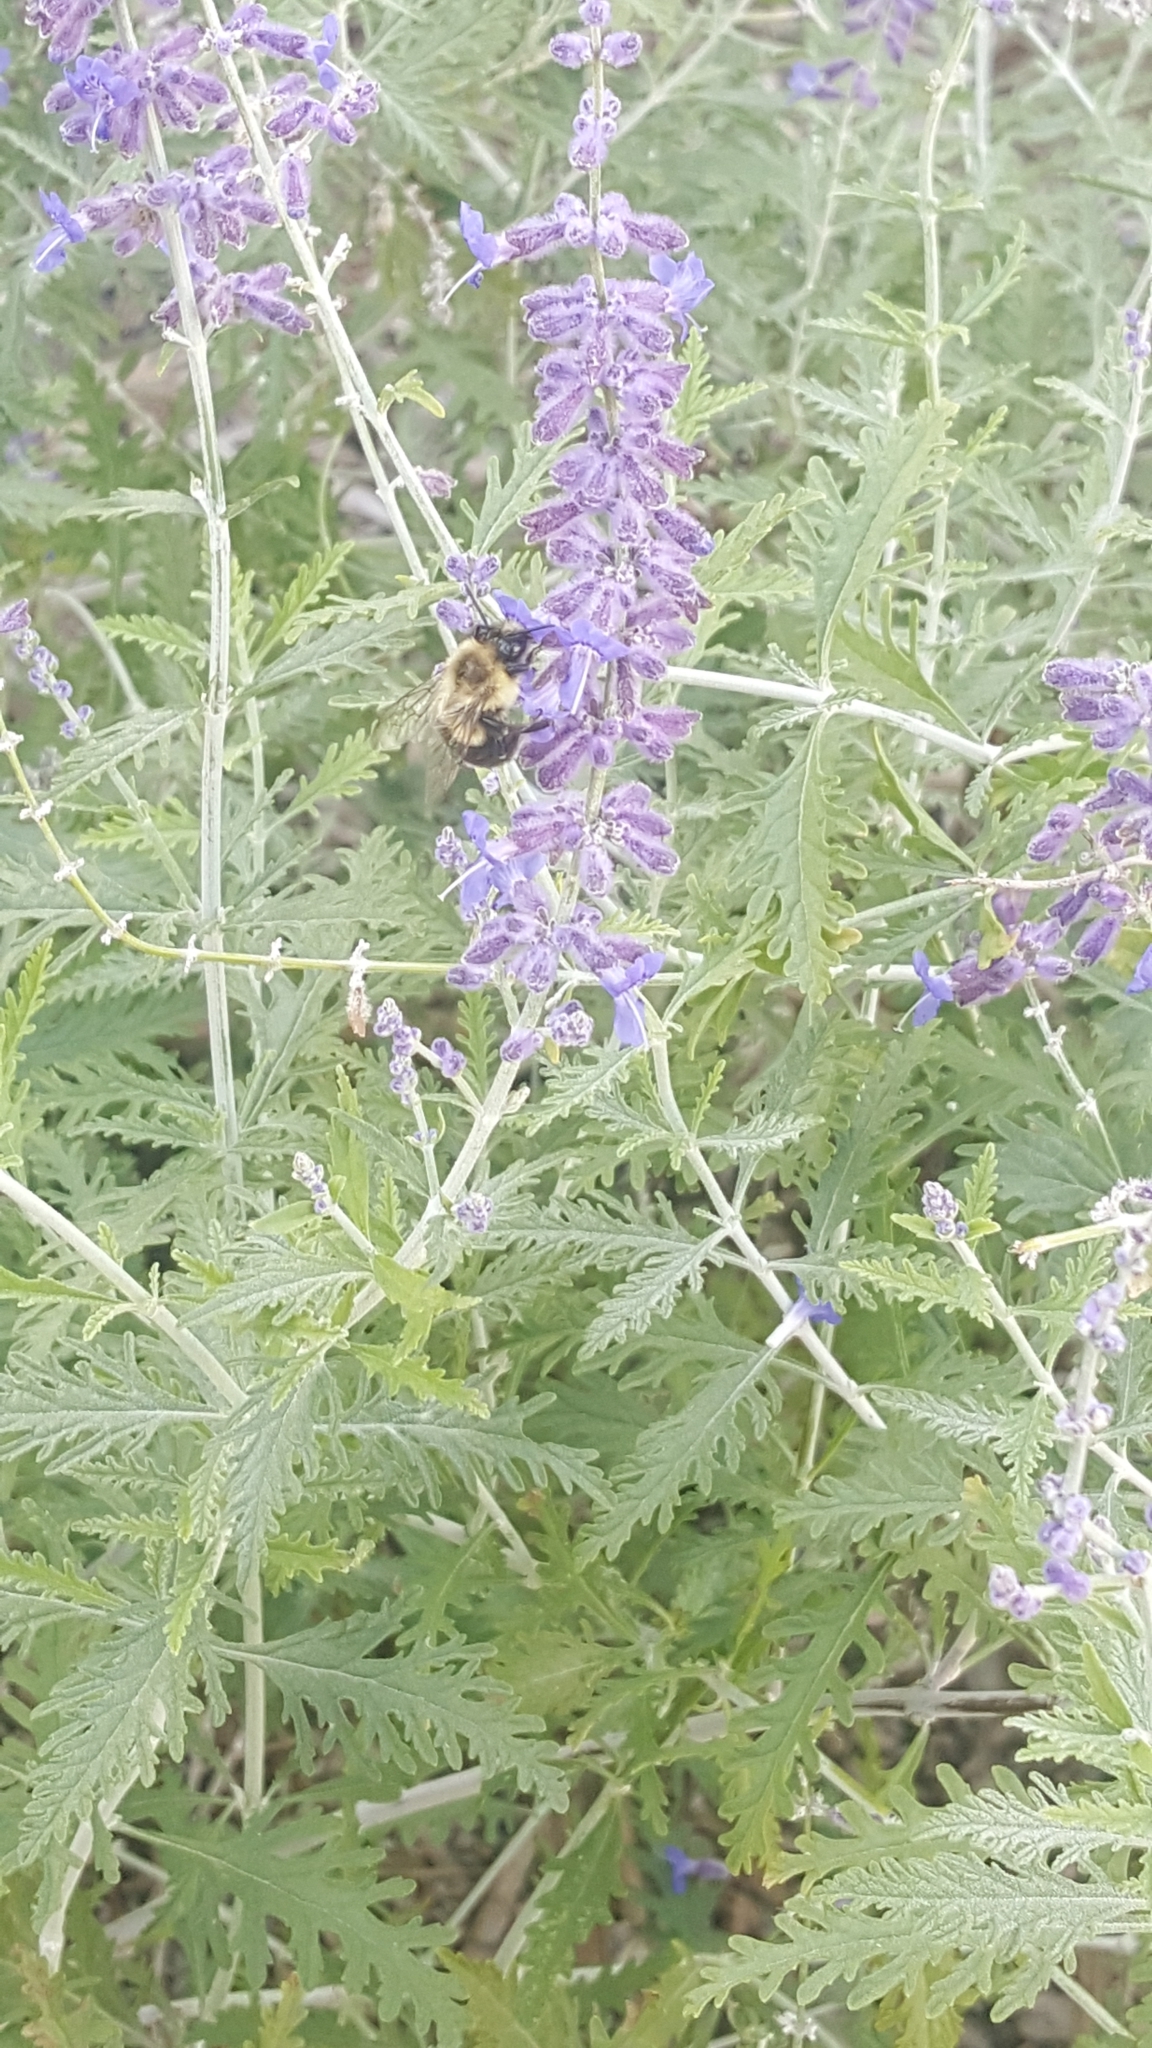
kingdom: Animalia
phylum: Arthropoda
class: Insecta
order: Hymenoptera
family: Apidae
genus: Bombus
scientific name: Bombus impatiens
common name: Common eastern bumble bee
